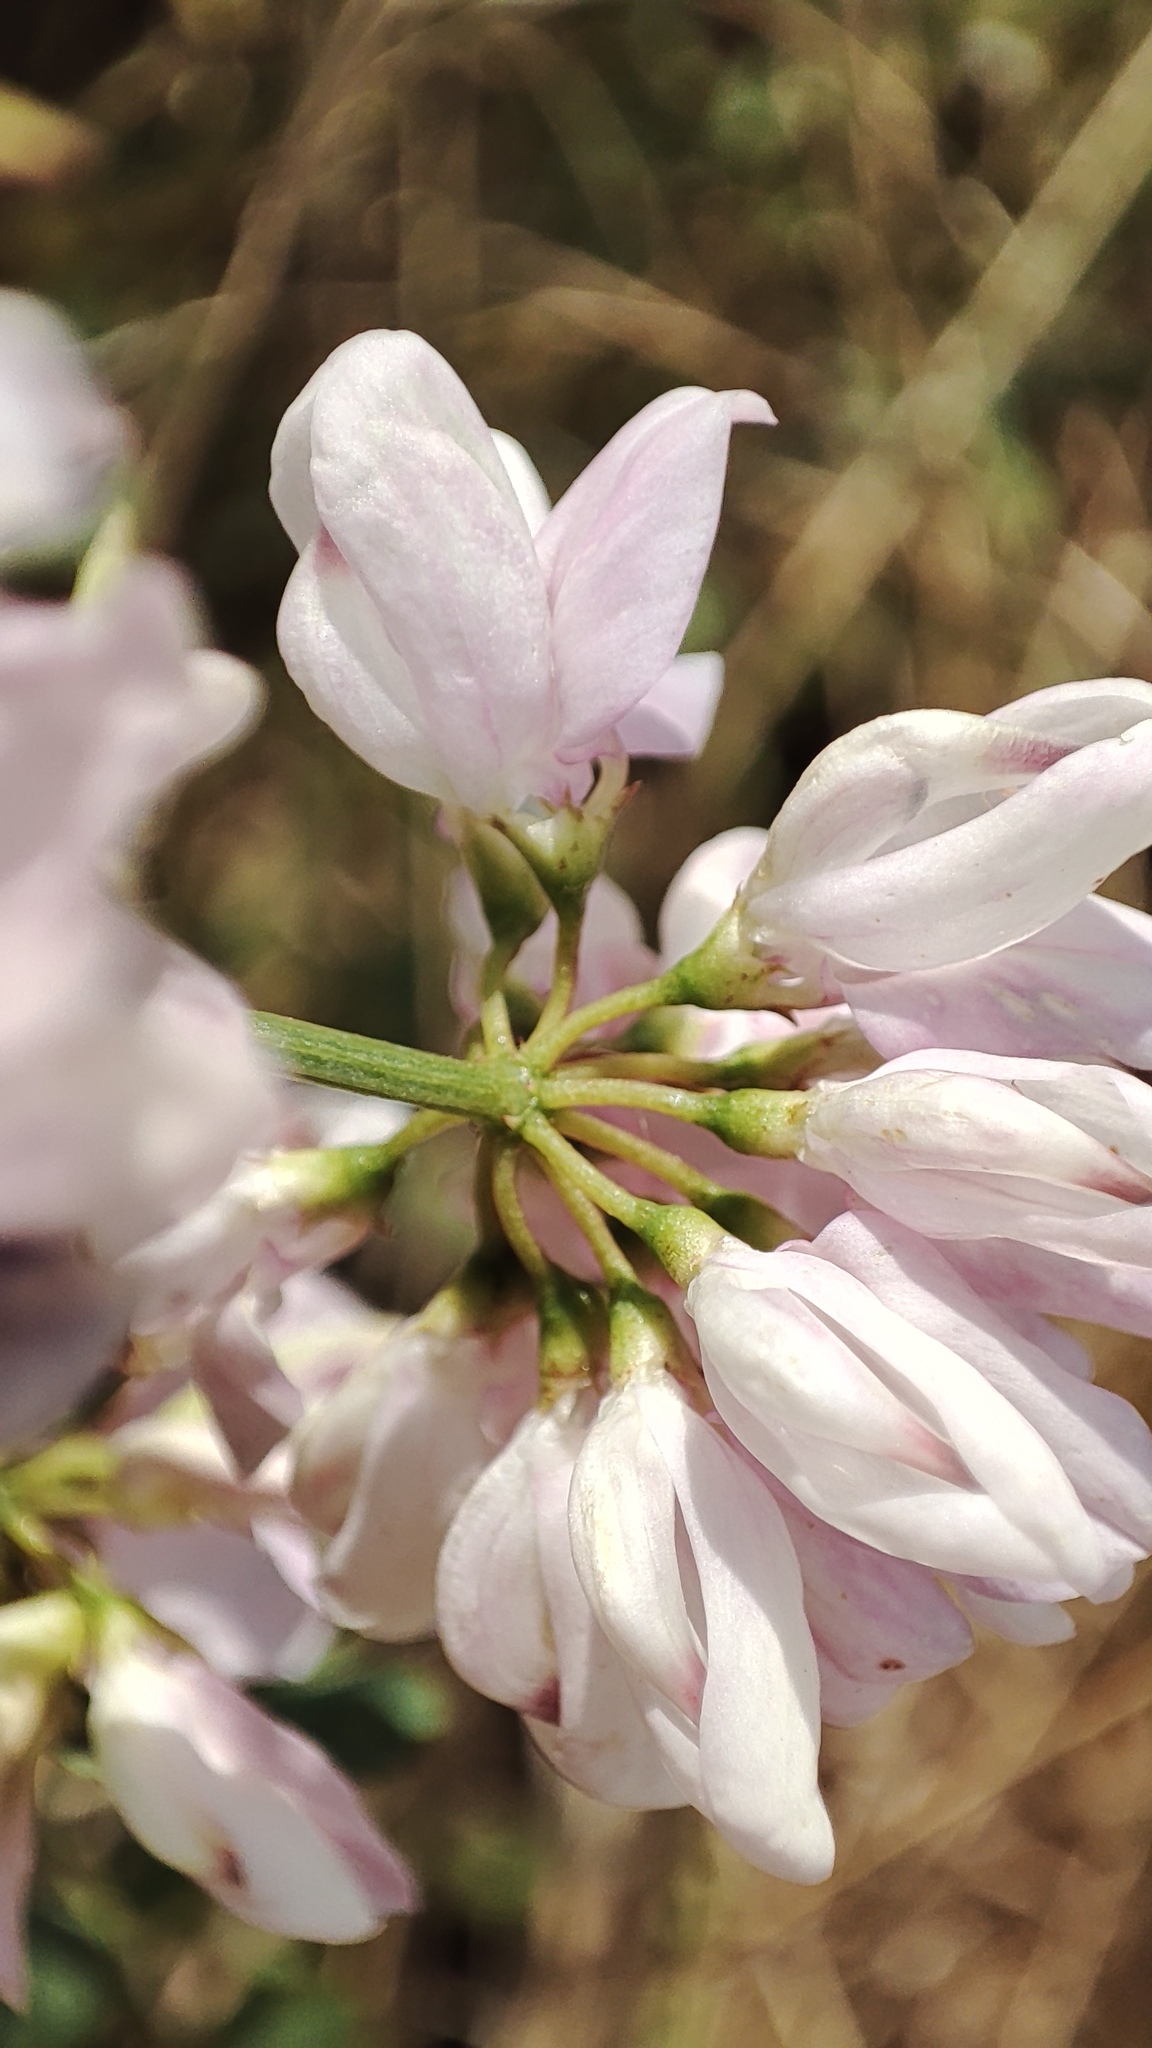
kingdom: Plantae
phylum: Tracheophyta
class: Magnoliopsida
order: Fabales
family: Fabaceae
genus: Coronilla
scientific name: Coronilla varia
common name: Crownvetch
